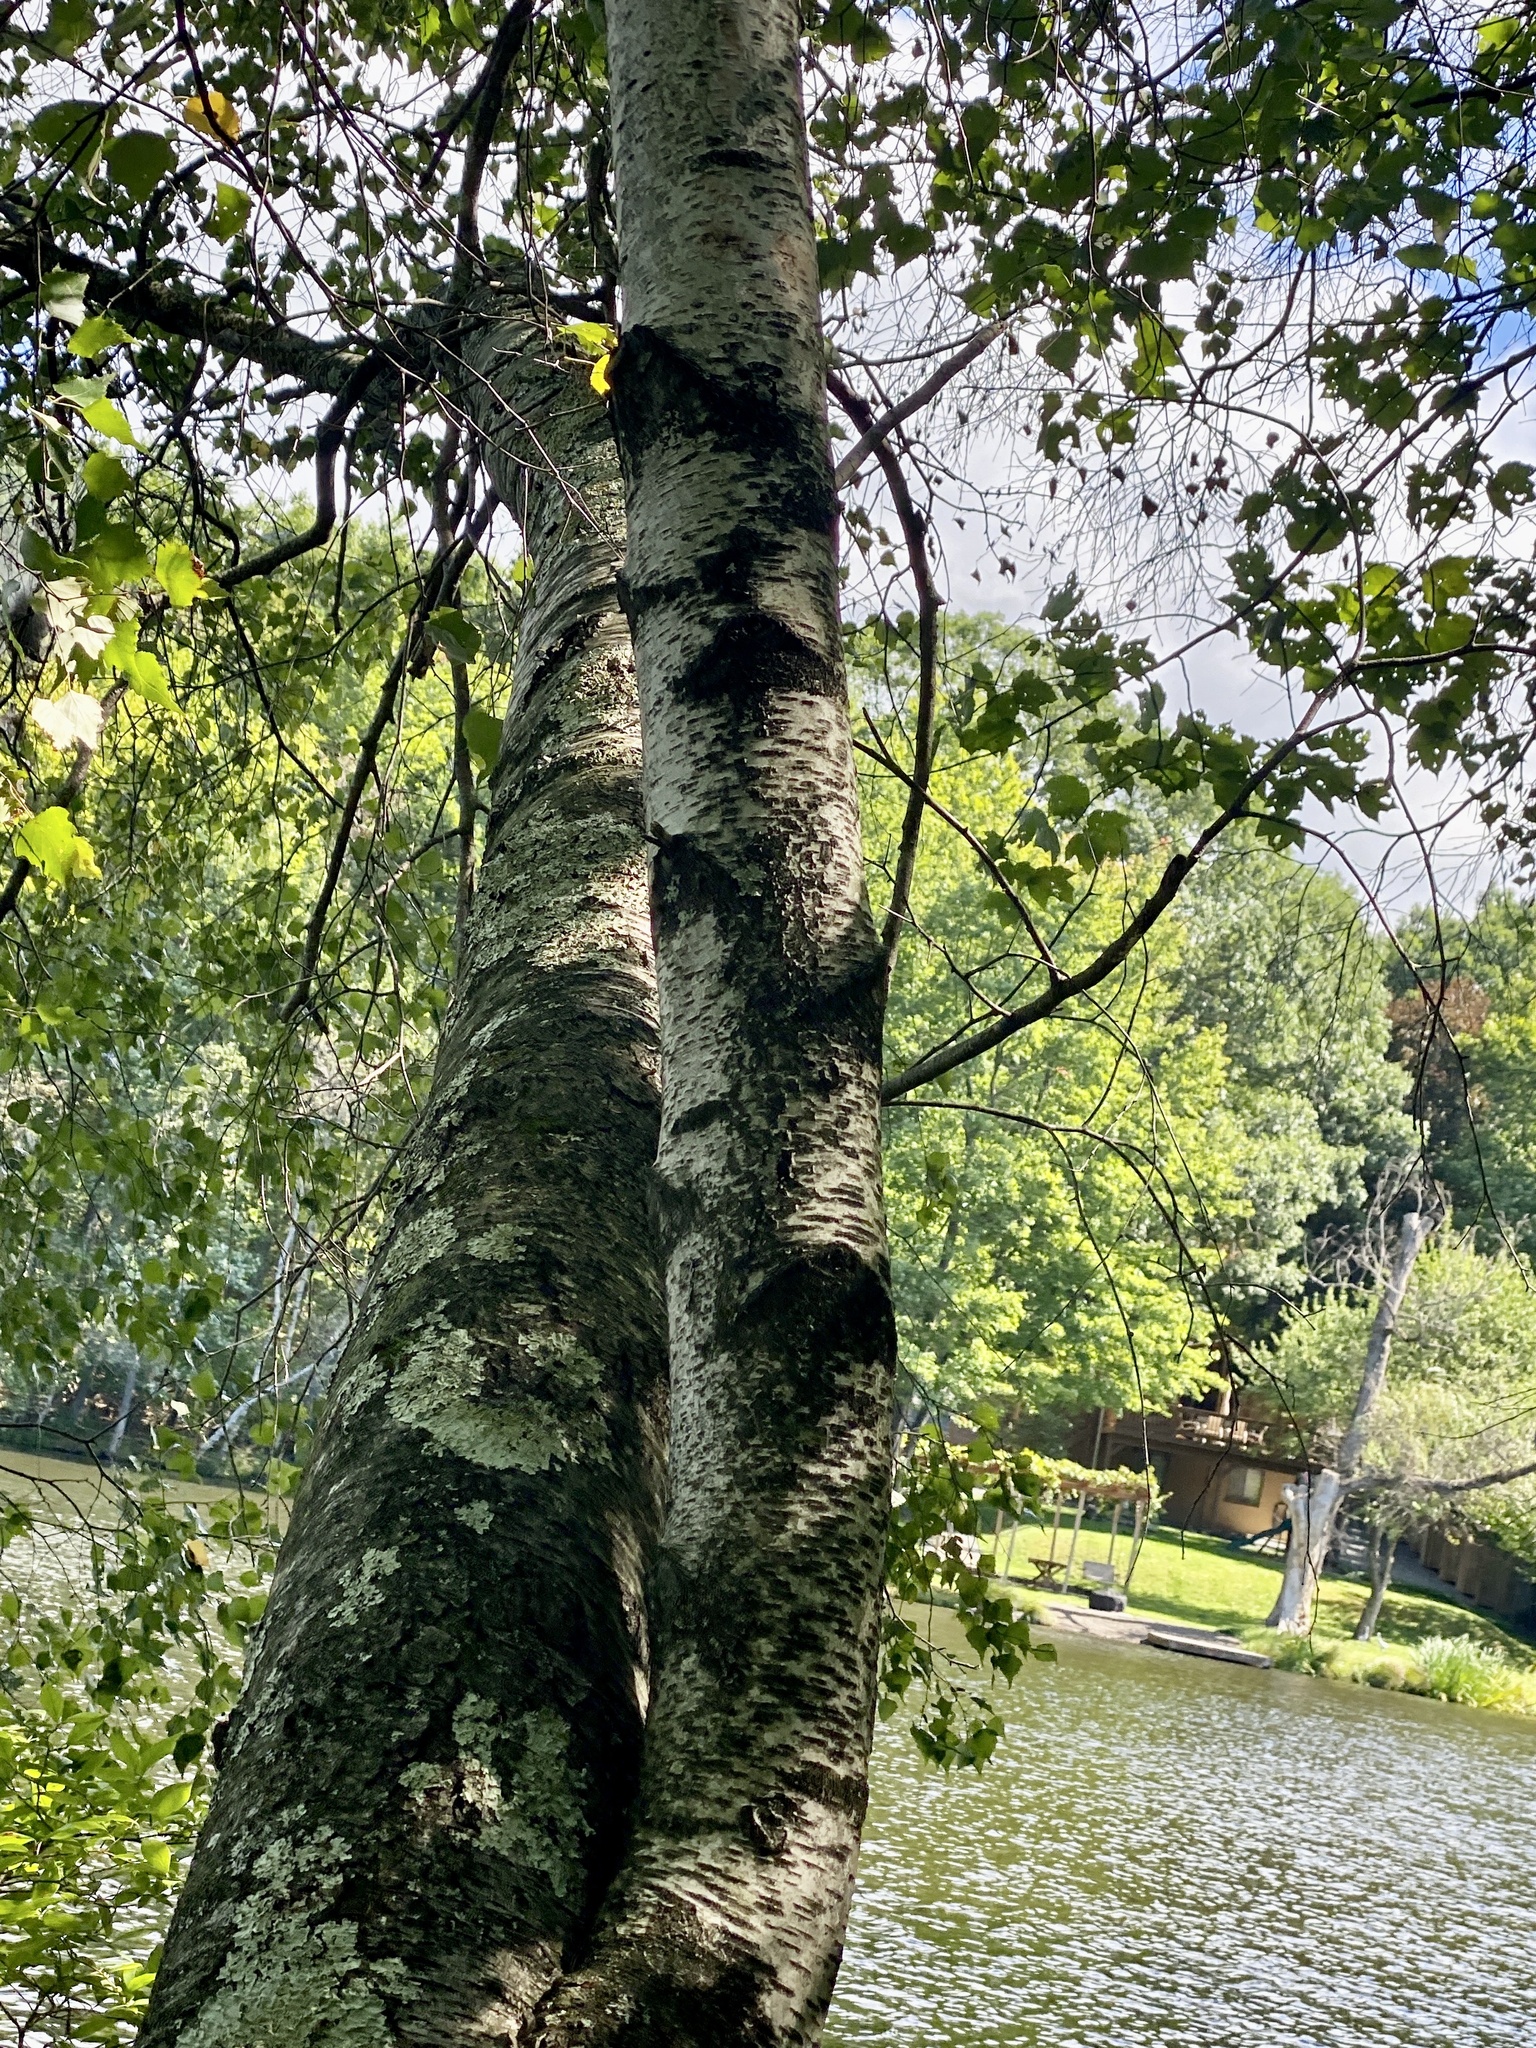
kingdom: Plantae
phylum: Tracheophyta
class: Magnoliopsida
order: Fagales
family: Betulaceae
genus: Betula
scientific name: Betula populifolia
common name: Fire birch
